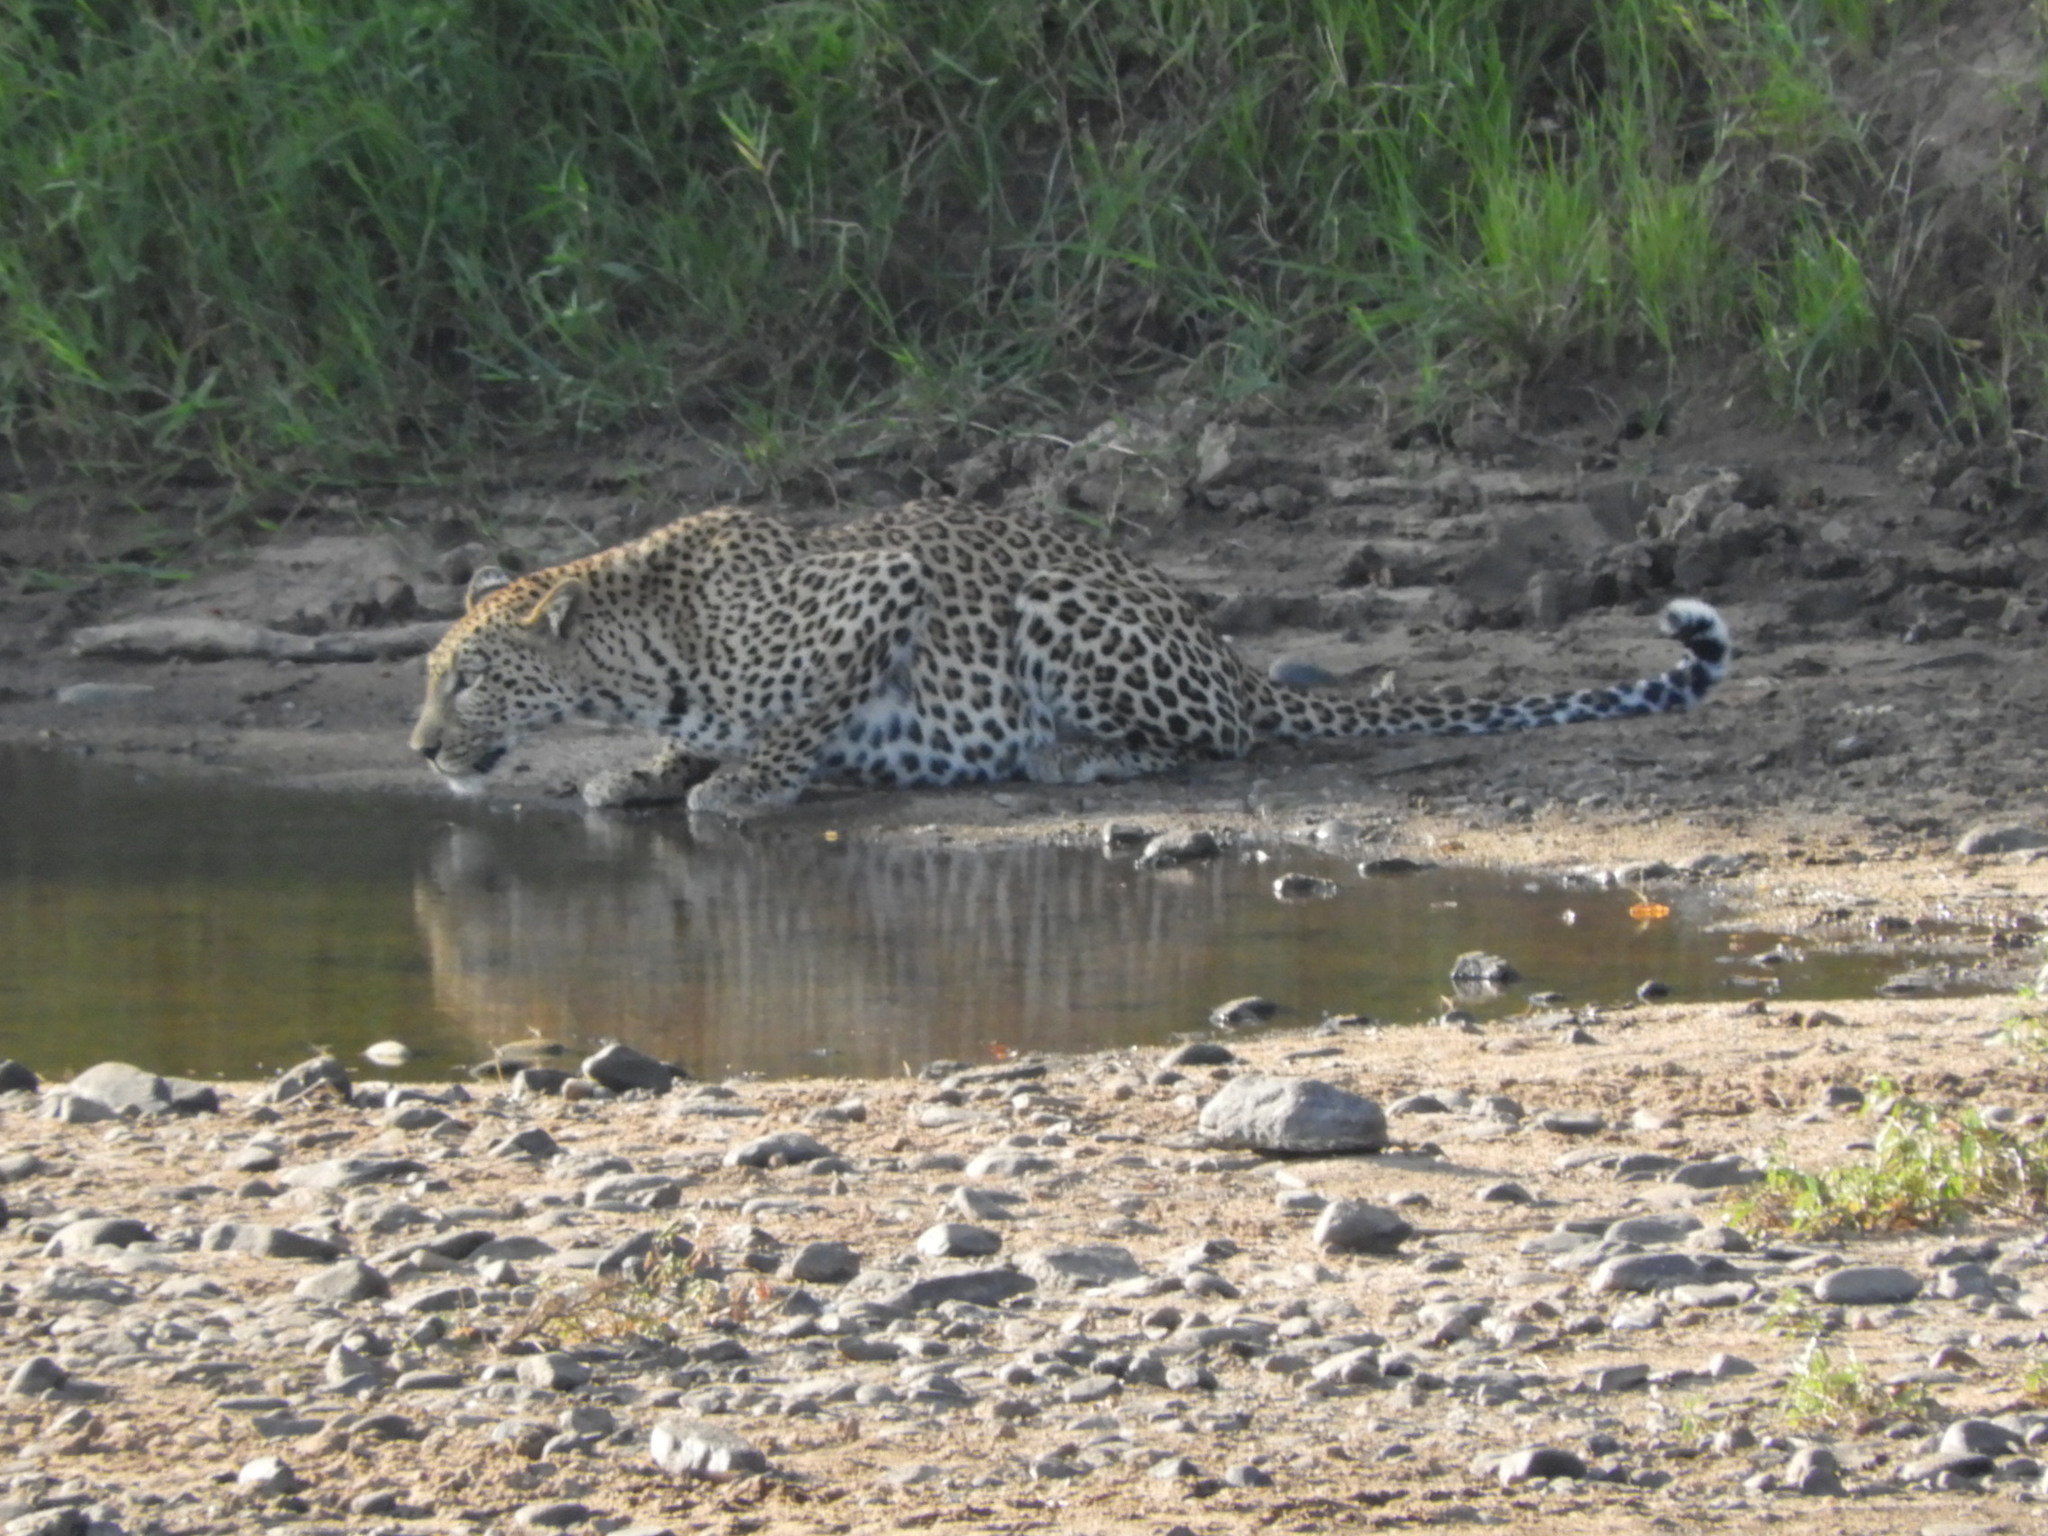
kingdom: Animalia
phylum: Chordata
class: Mammalia
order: Carnivora
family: Felidae
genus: Panthera
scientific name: Panthera pardus
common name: Leopard
